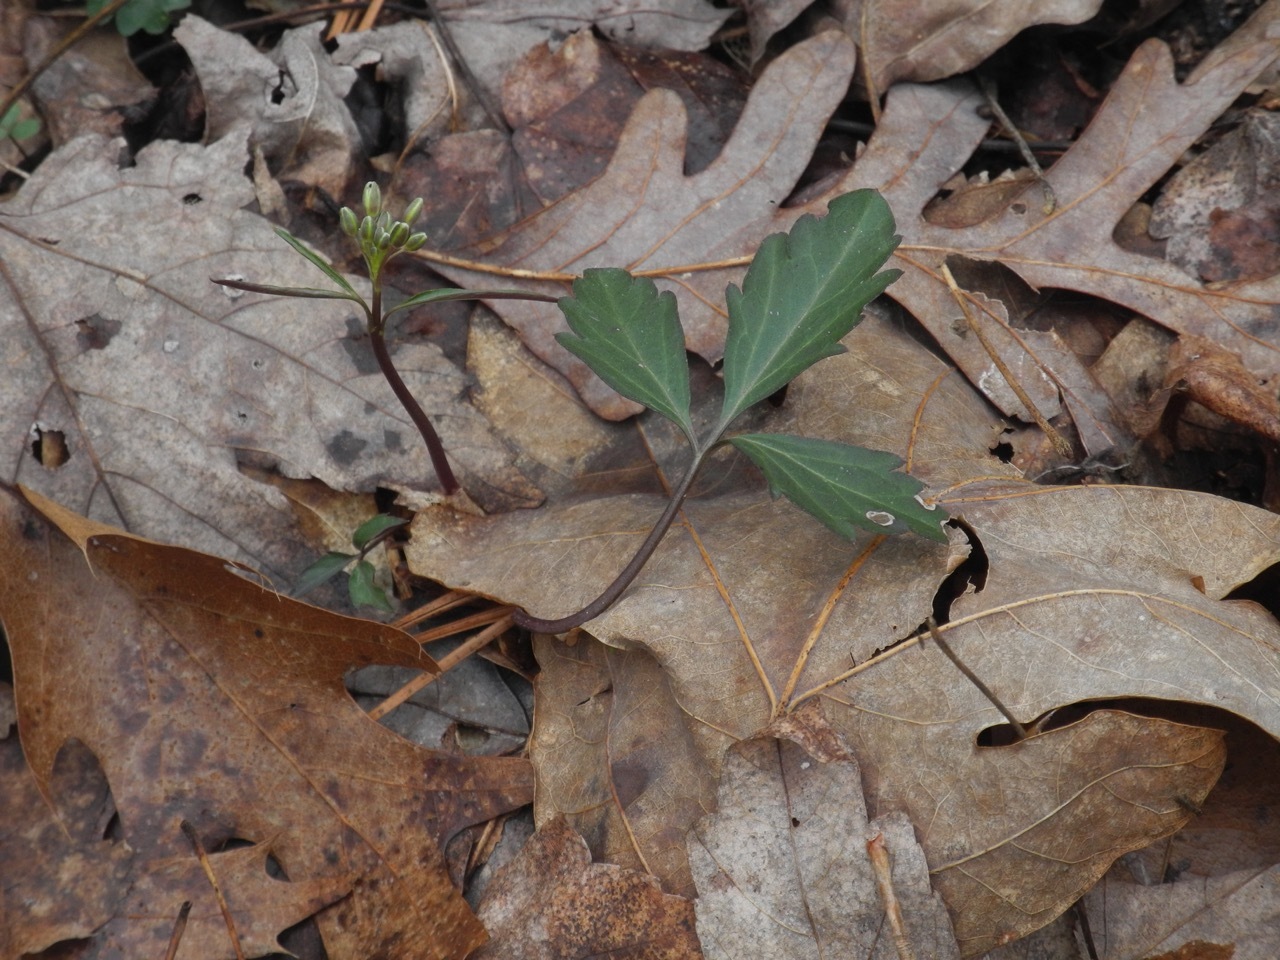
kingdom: Plantae
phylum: Tracheophyta
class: Magnoliopsida
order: Brassicales
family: Brassicaceae
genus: Cardamine
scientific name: Cardamine diphylla
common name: Broad-leaved toothwort
